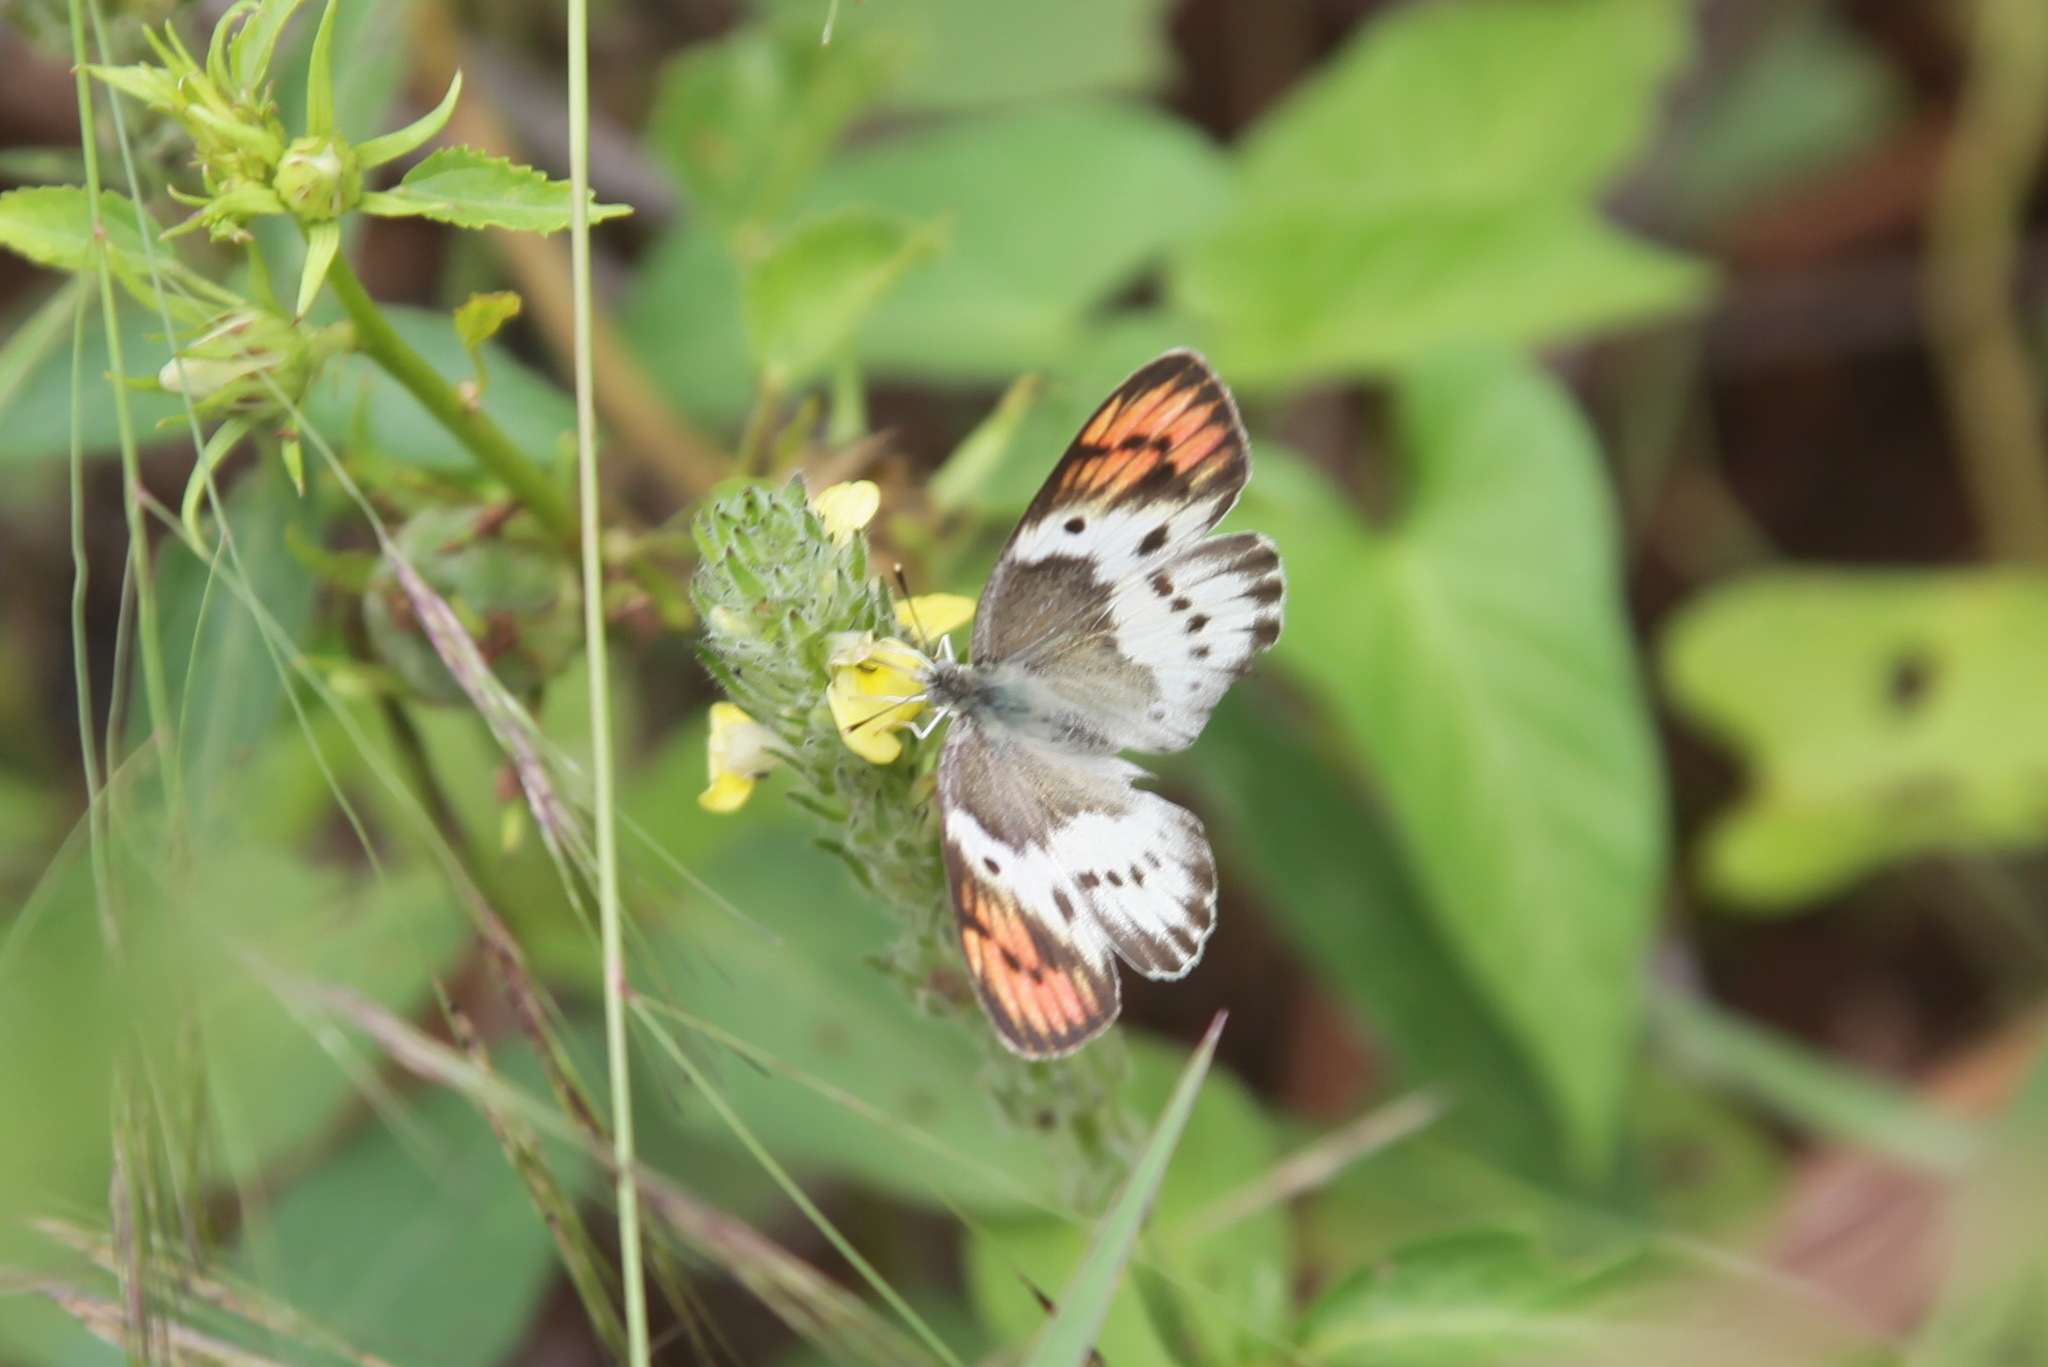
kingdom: Animalia
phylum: Arthropoda
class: Insecta
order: Lepidoptera
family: Pieridae
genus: Colotis
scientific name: Colotis annae
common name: Scarlet tip
